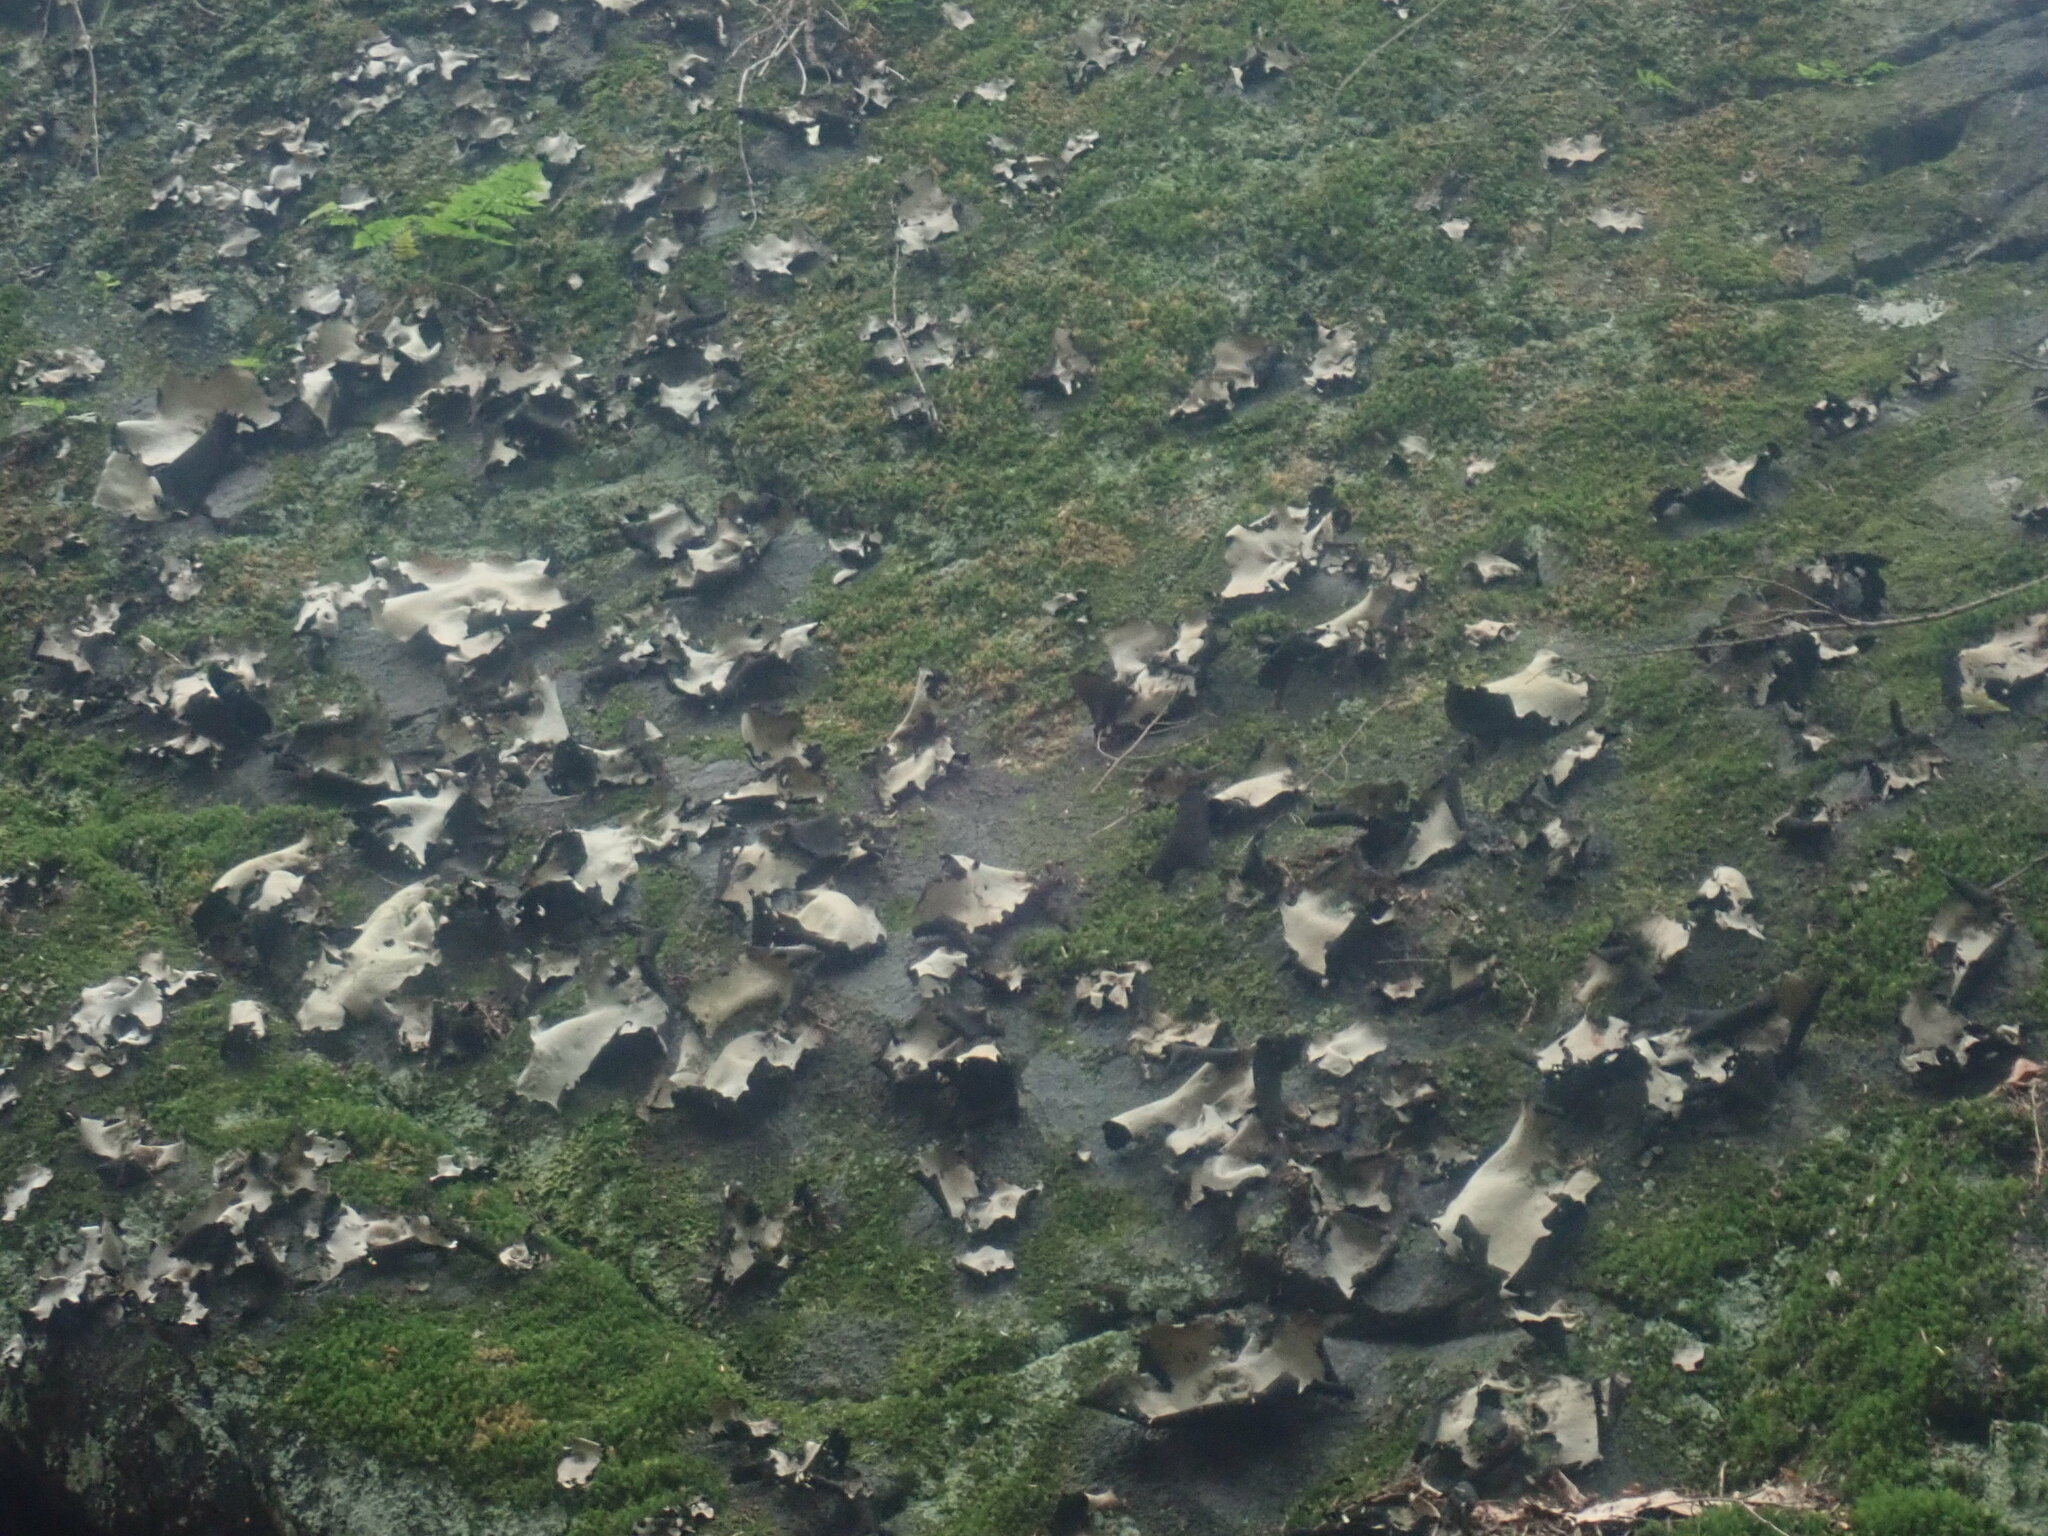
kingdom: Fungi
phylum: Ascomycota
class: Lecanoromycetes
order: Umbilicariales
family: Umbilicariaceae
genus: Umbilicaria
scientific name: Umbilicaria mammulata
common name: Smooth rock tripe
